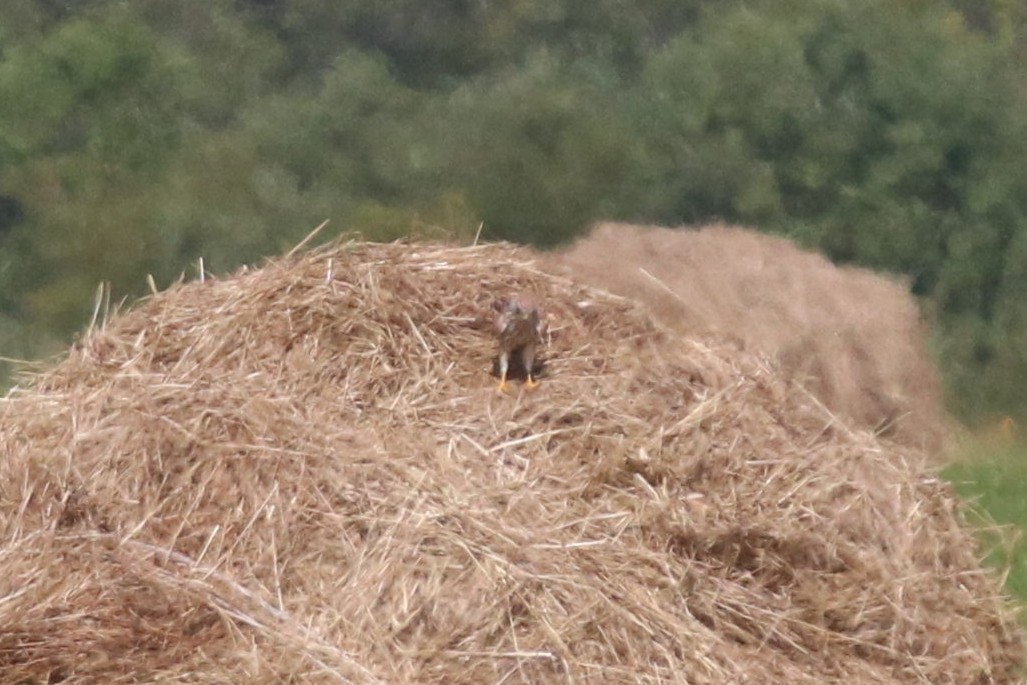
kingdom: Animalia
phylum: Chordata
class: Aves
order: Falconiformes
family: Falconidae
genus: Falco
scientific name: Falco tinnunculus
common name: Common kestrel
